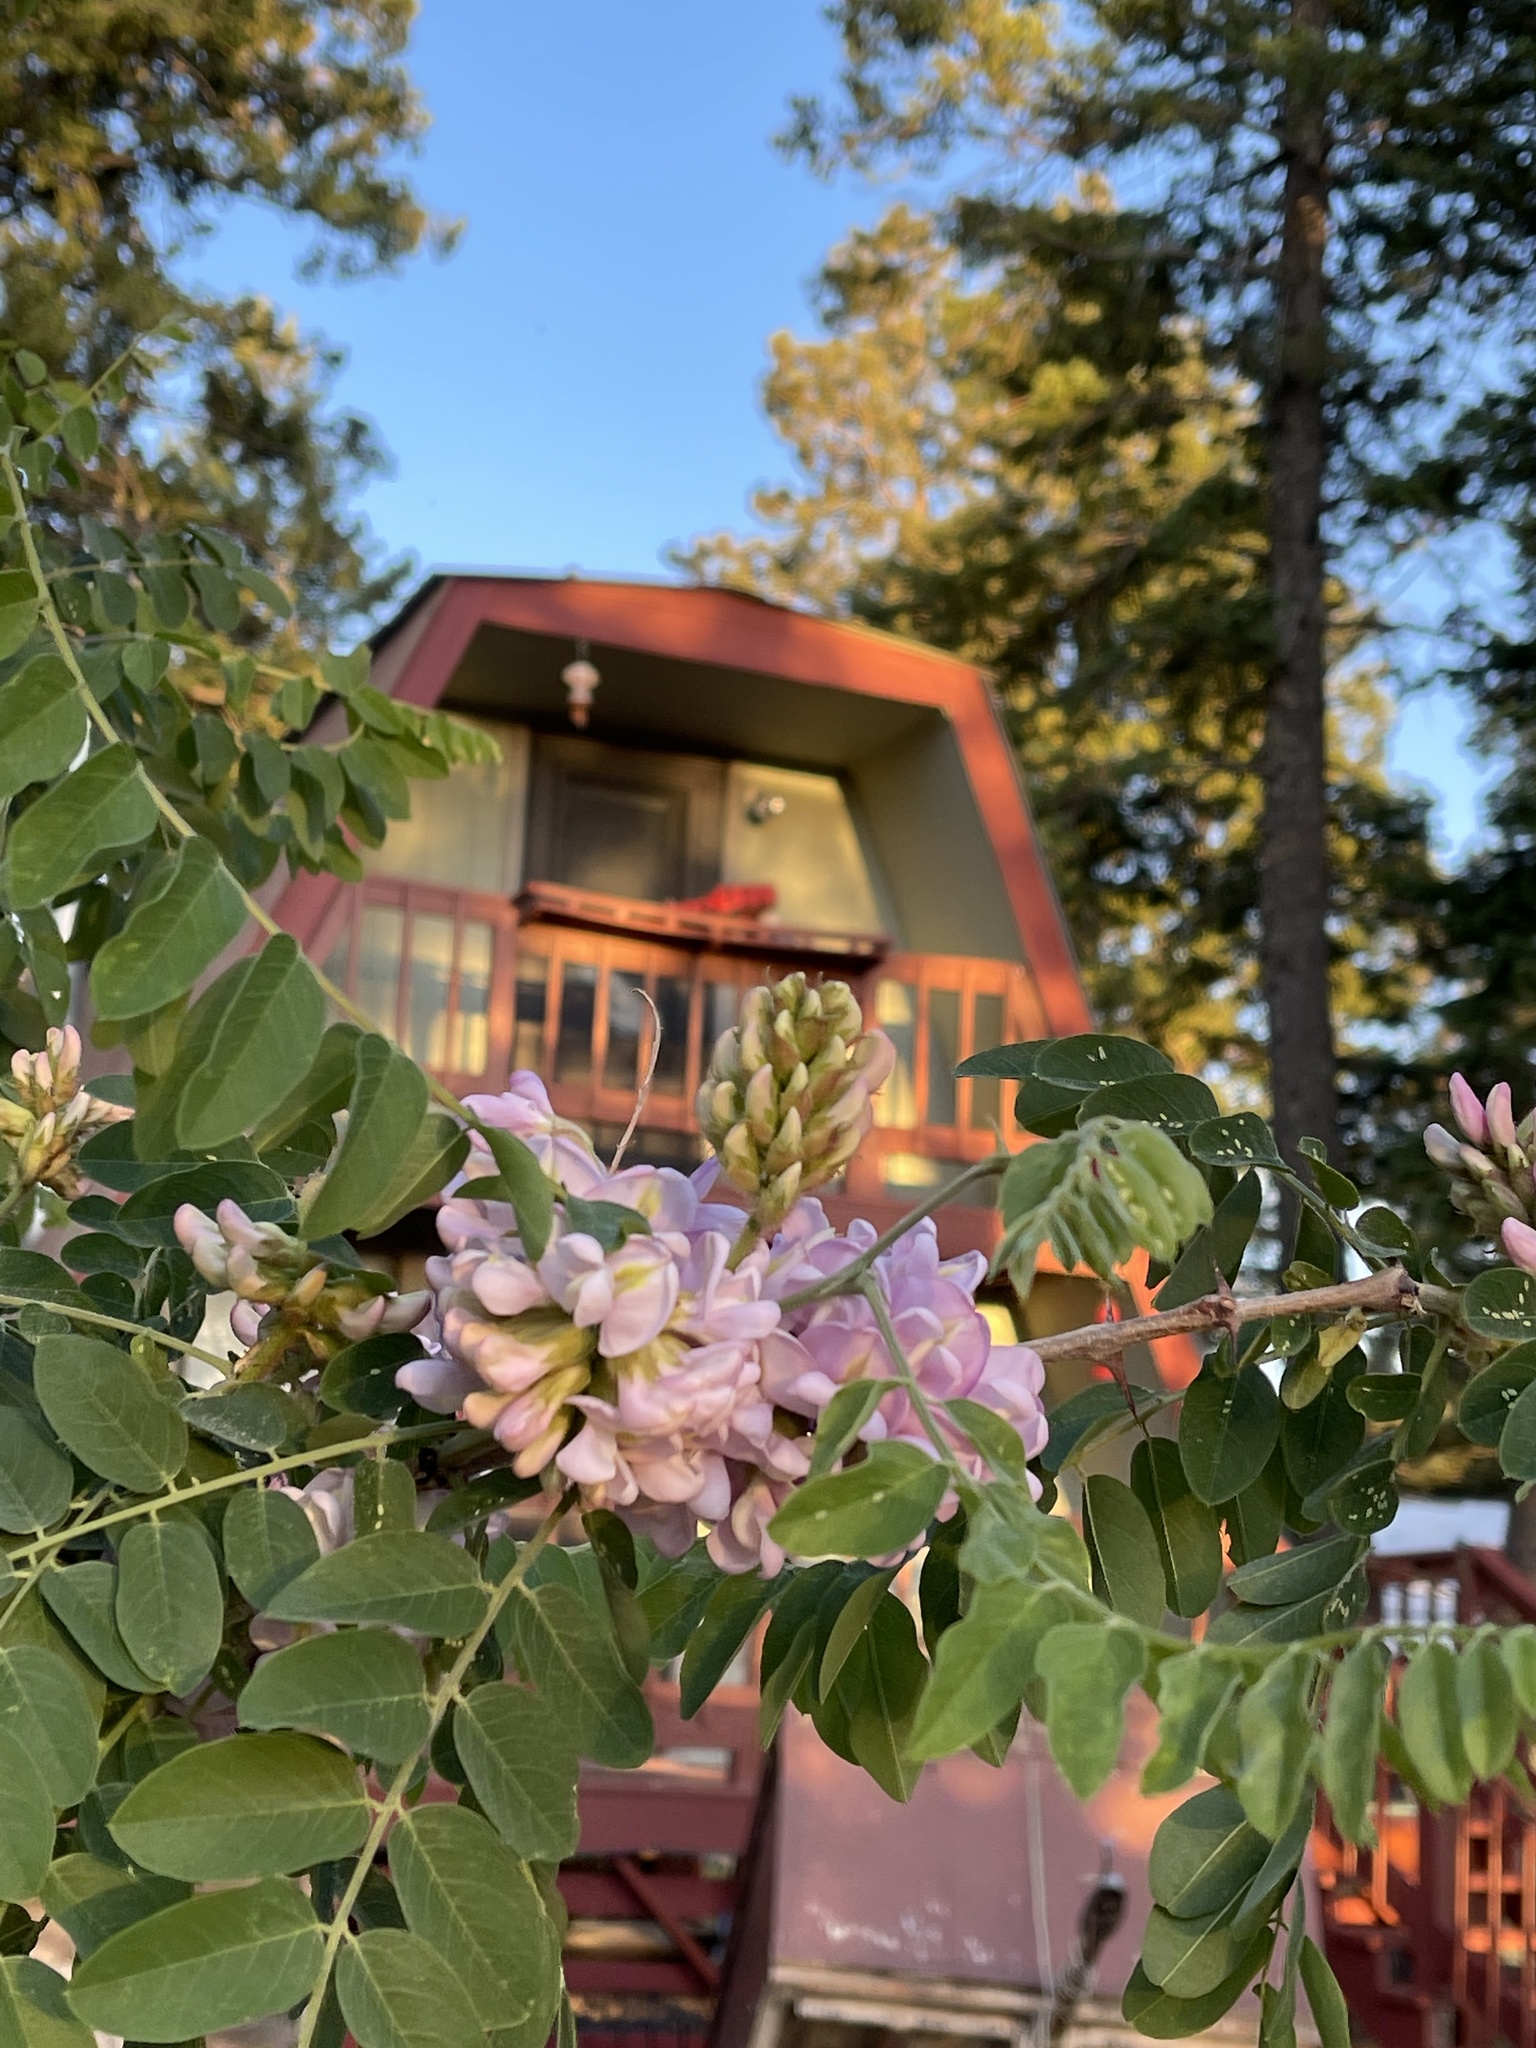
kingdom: Plantae
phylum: Tracheophyta
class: Magnoliopsida
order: Fabales
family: Fabaceae
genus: Robinia
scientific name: Robinia neomexicana
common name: New mexico locust
